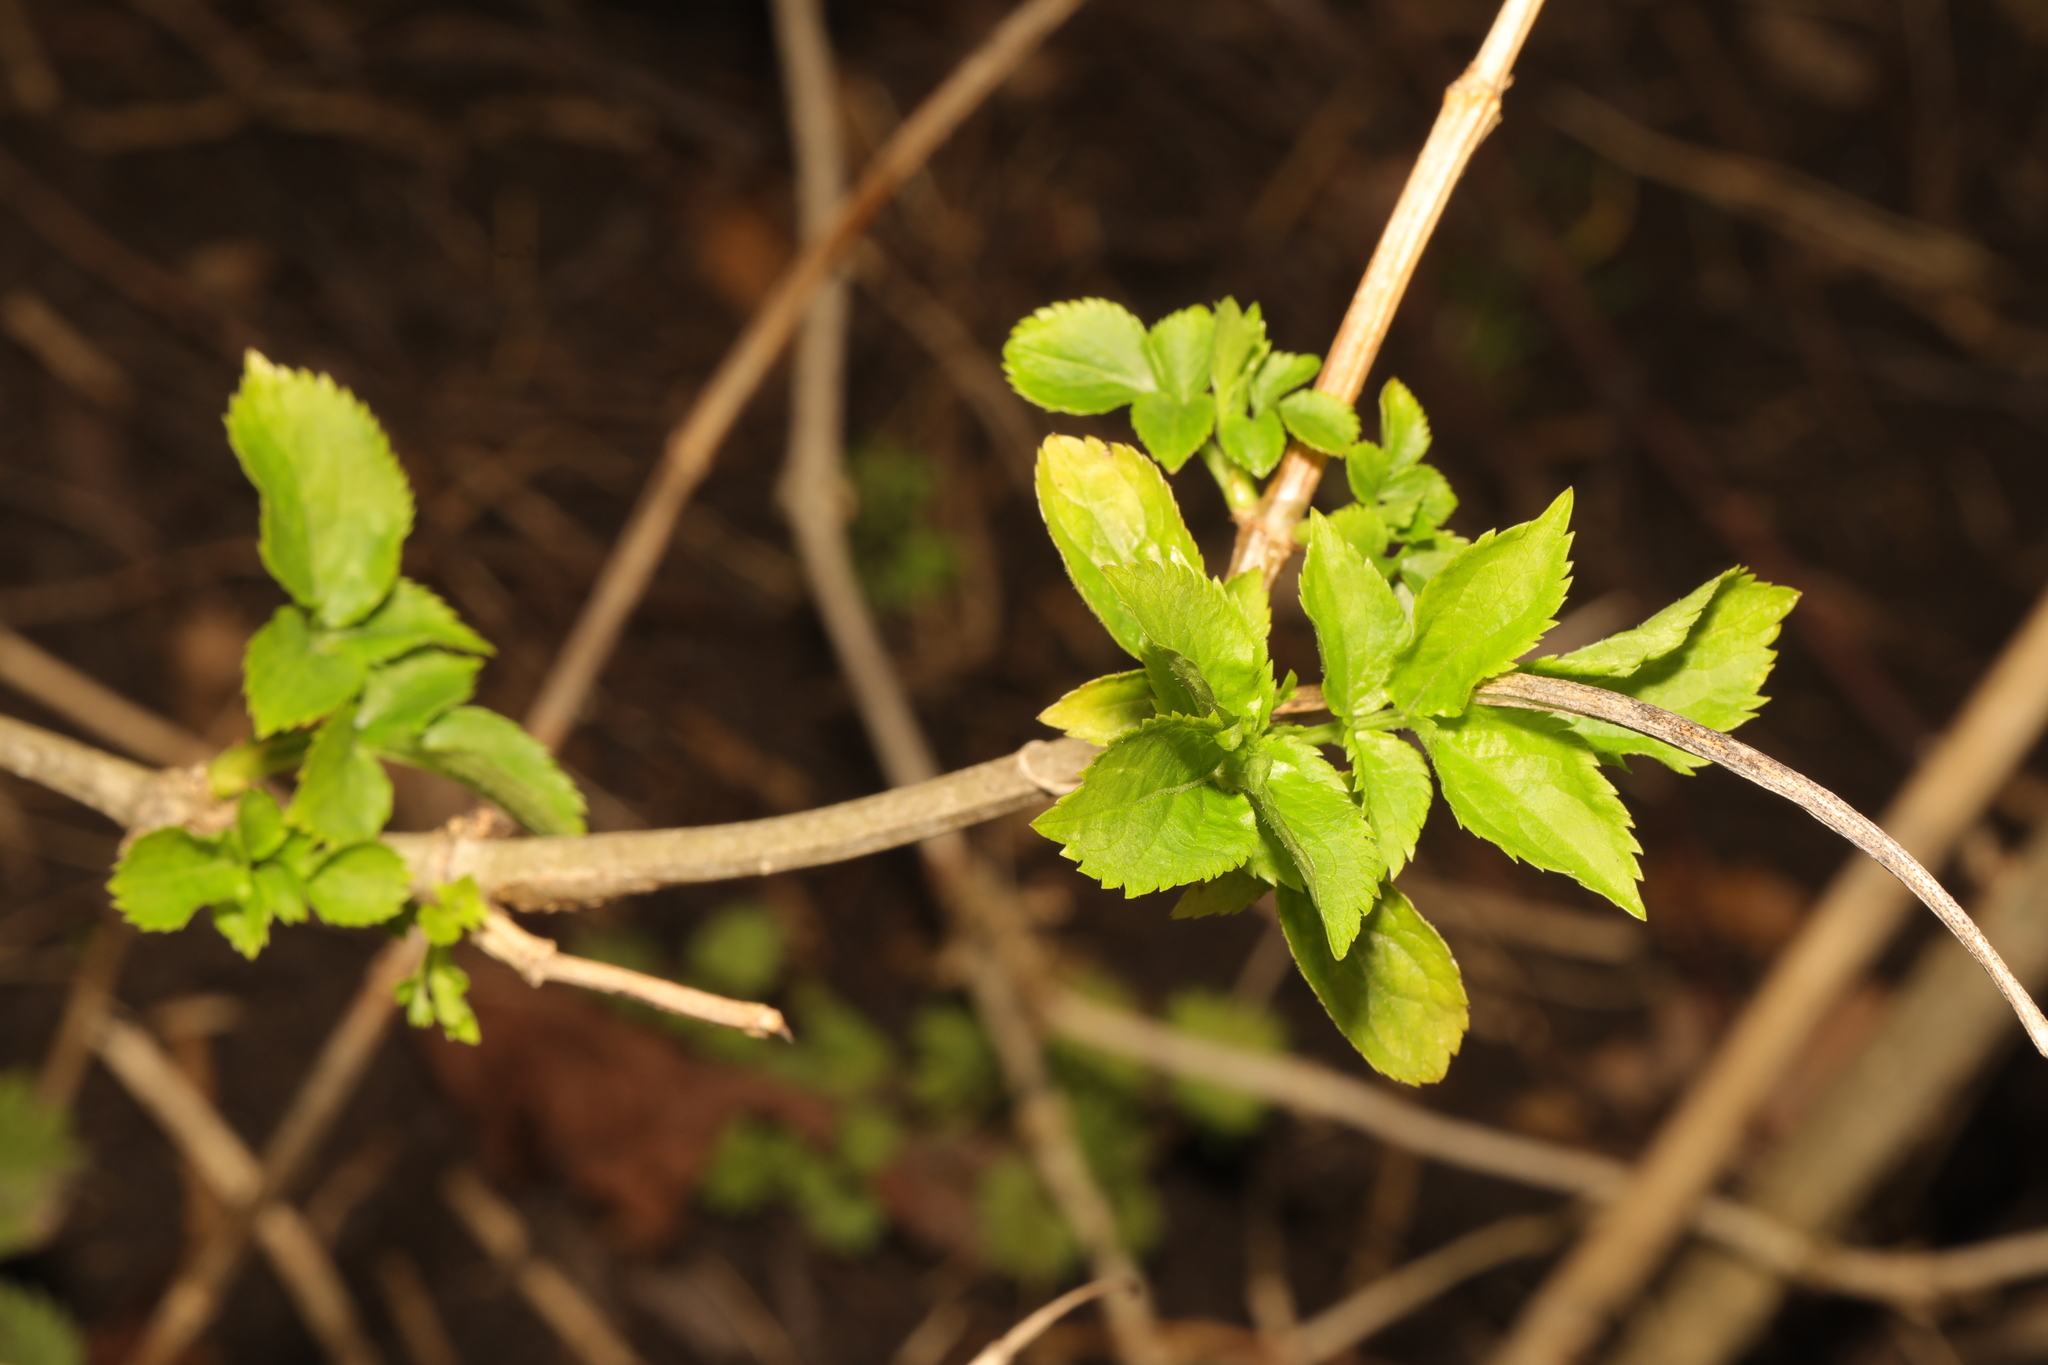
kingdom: Plantae
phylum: Tracheophyta
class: Magnoliopsida
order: Dipsacales
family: Viburnaceae
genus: Sambucus
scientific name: Sambucus nigra
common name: Elder
